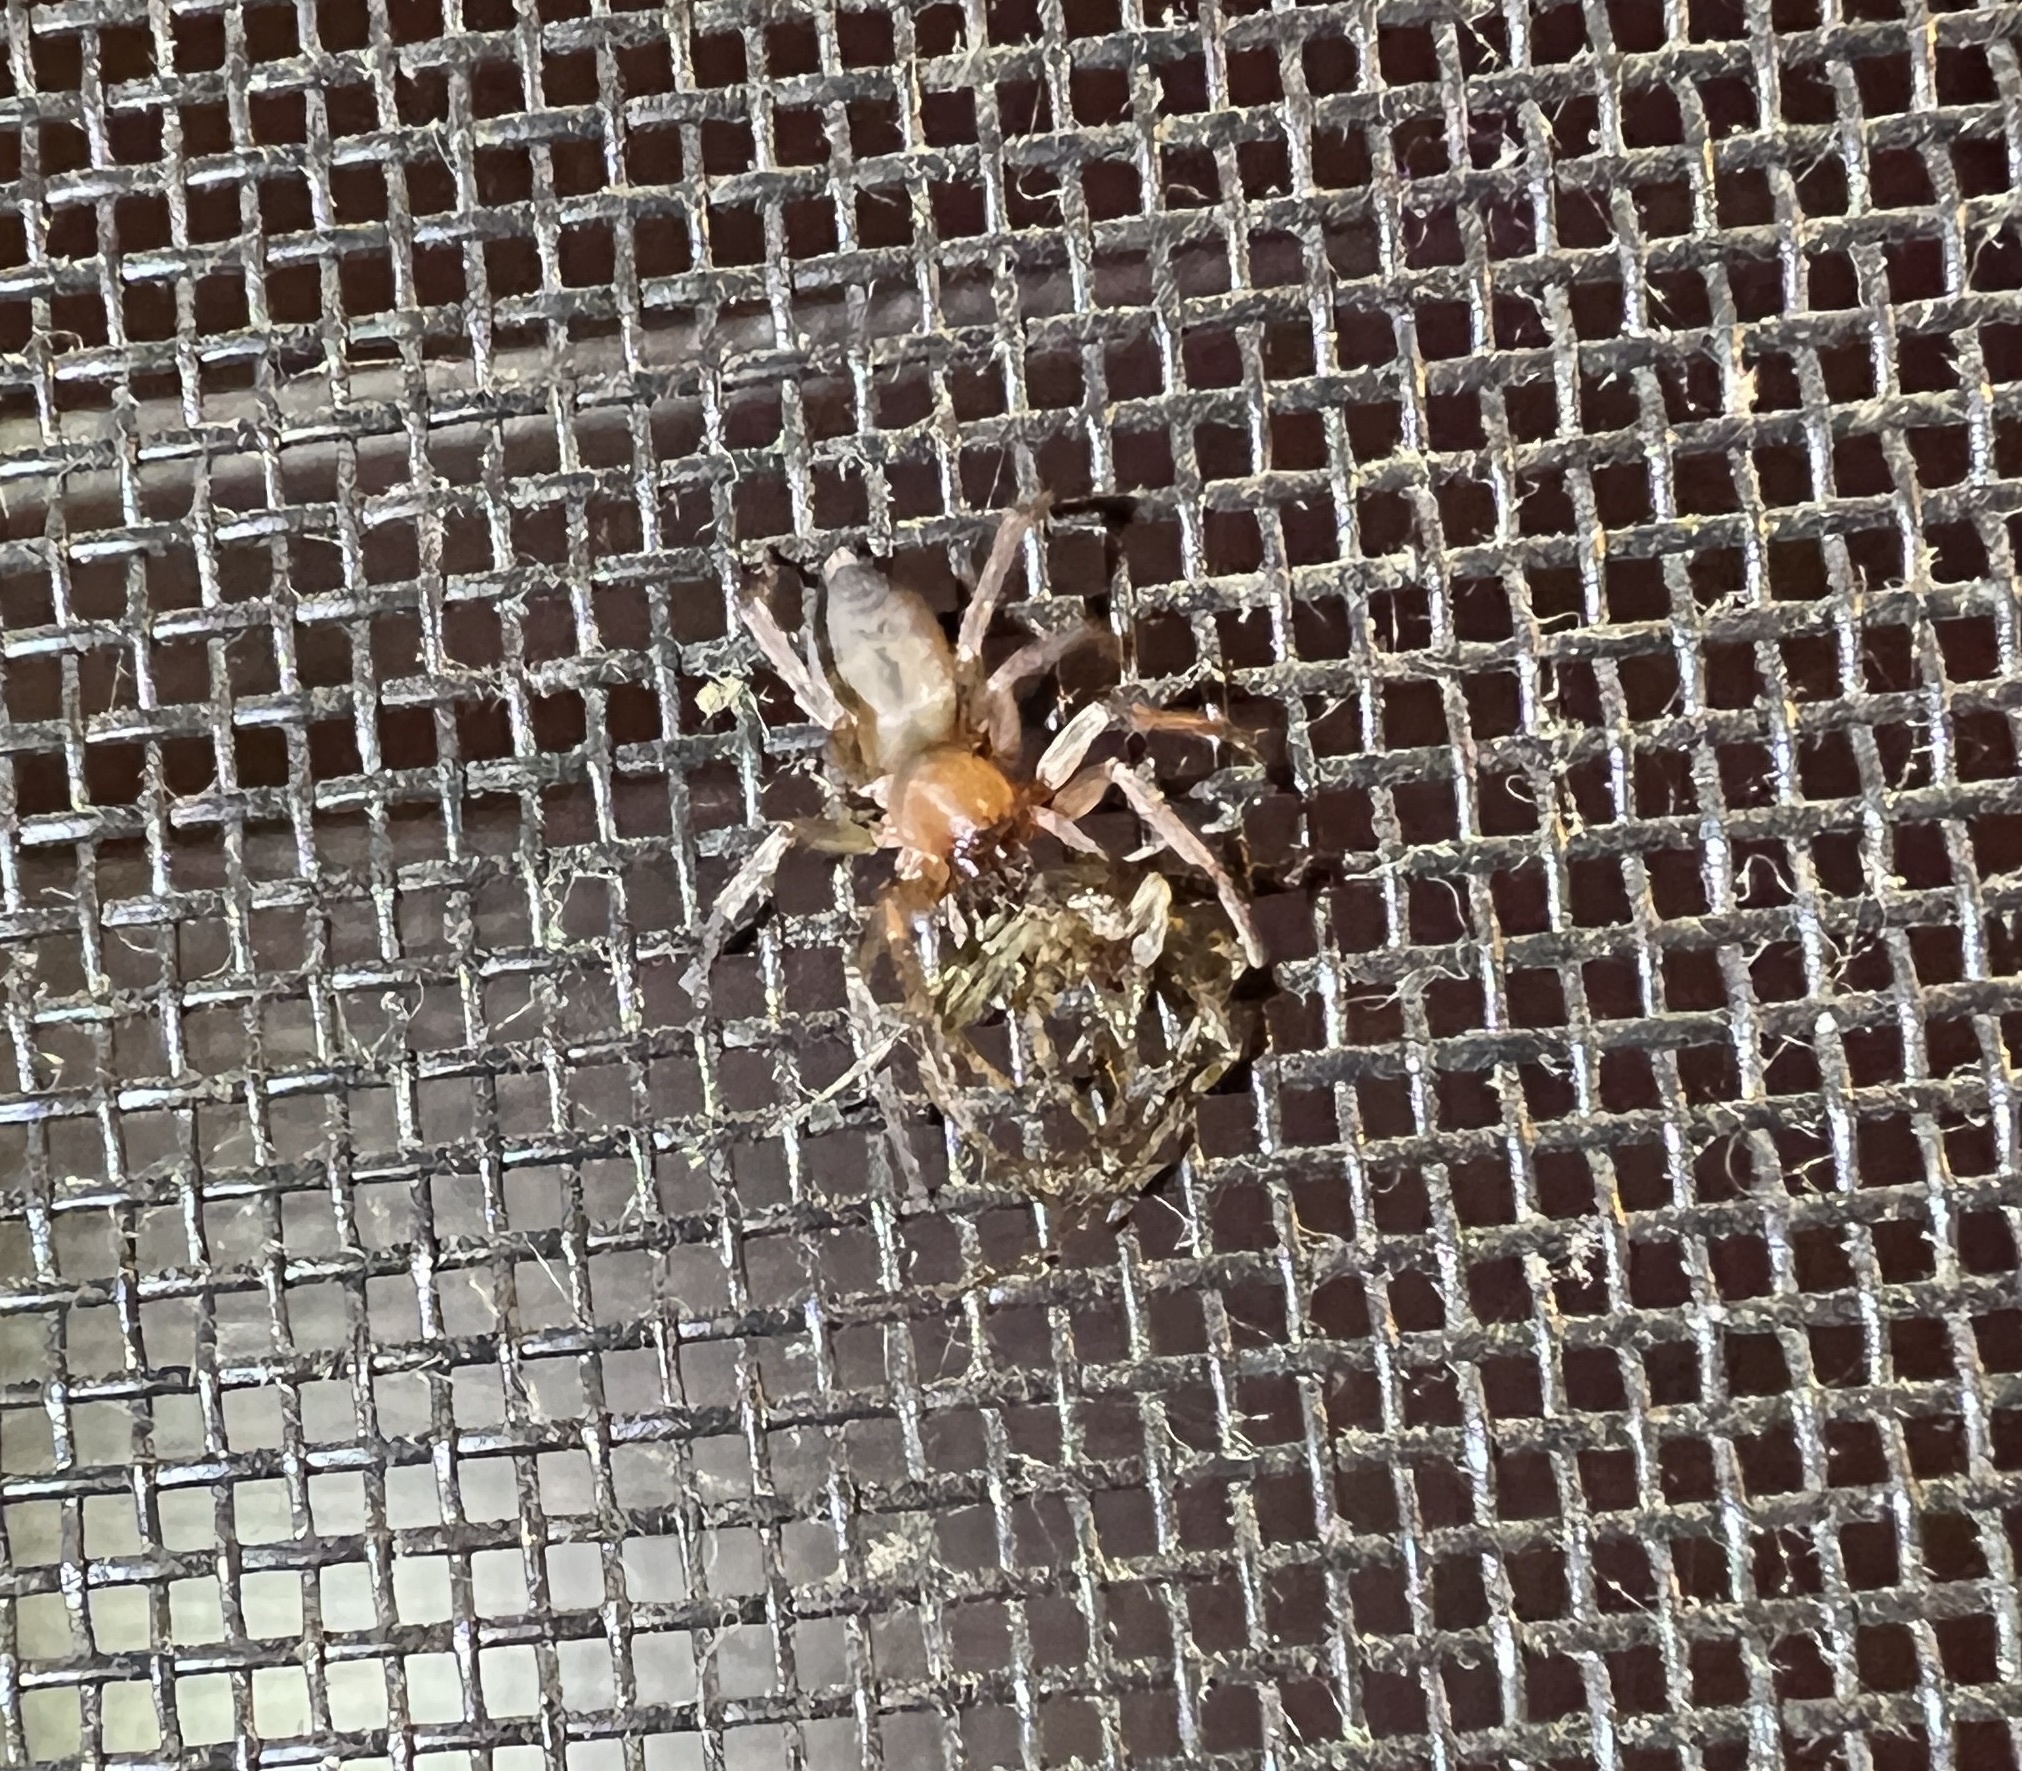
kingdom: Animalia
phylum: Arthropoda
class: Arachnida
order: Araneae
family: Clubionidae
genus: Elaver
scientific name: Elaver excepta
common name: White sac spider
